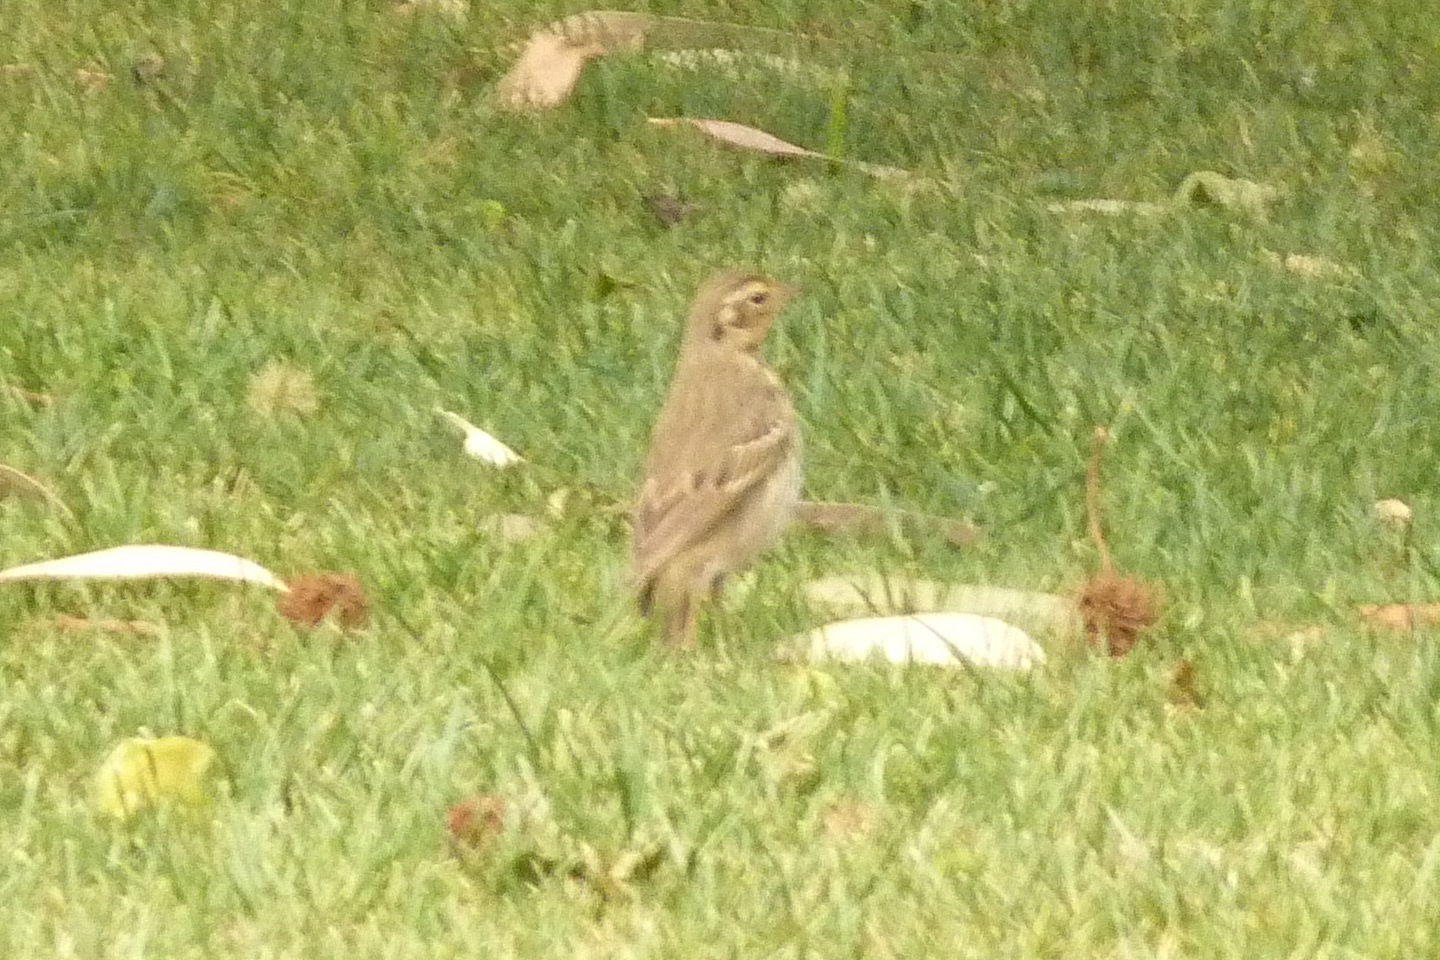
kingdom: Animalia
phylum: Chordata
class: Aves
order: Passeriformes
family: Motacillidae
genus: Anthus
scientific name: Anthus hodgsoni
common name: Olive-backed pipit
